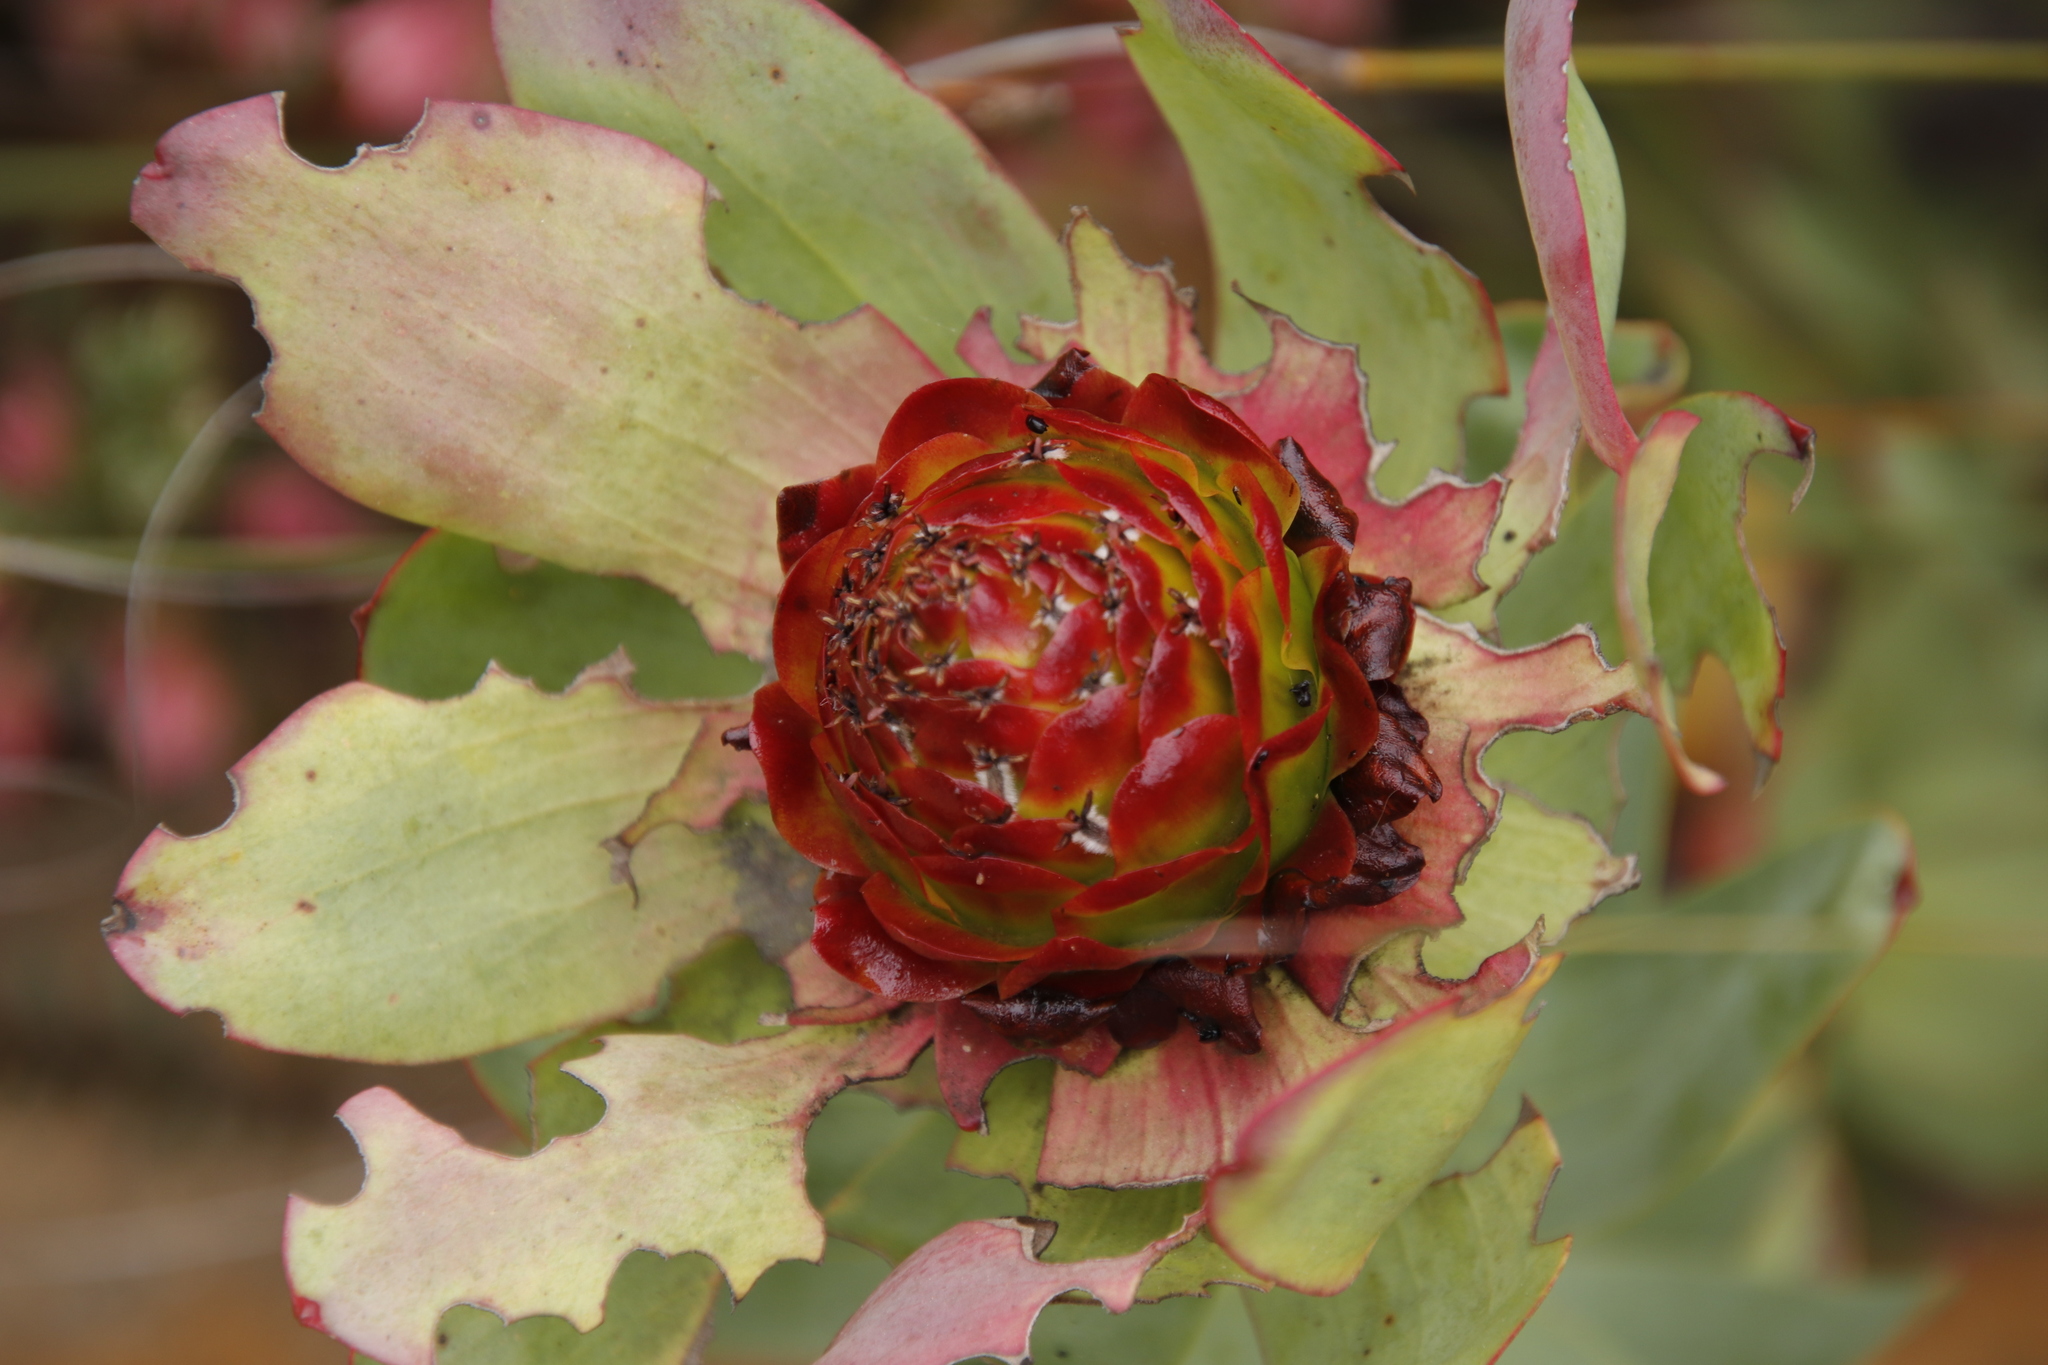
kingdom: Plantae
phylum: Tracheophyta
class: Magnoliopsida
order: Proteales
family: Proteaceae
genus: Leucadendron
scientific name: Leucadendron tinctum
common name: Spicy conebush
